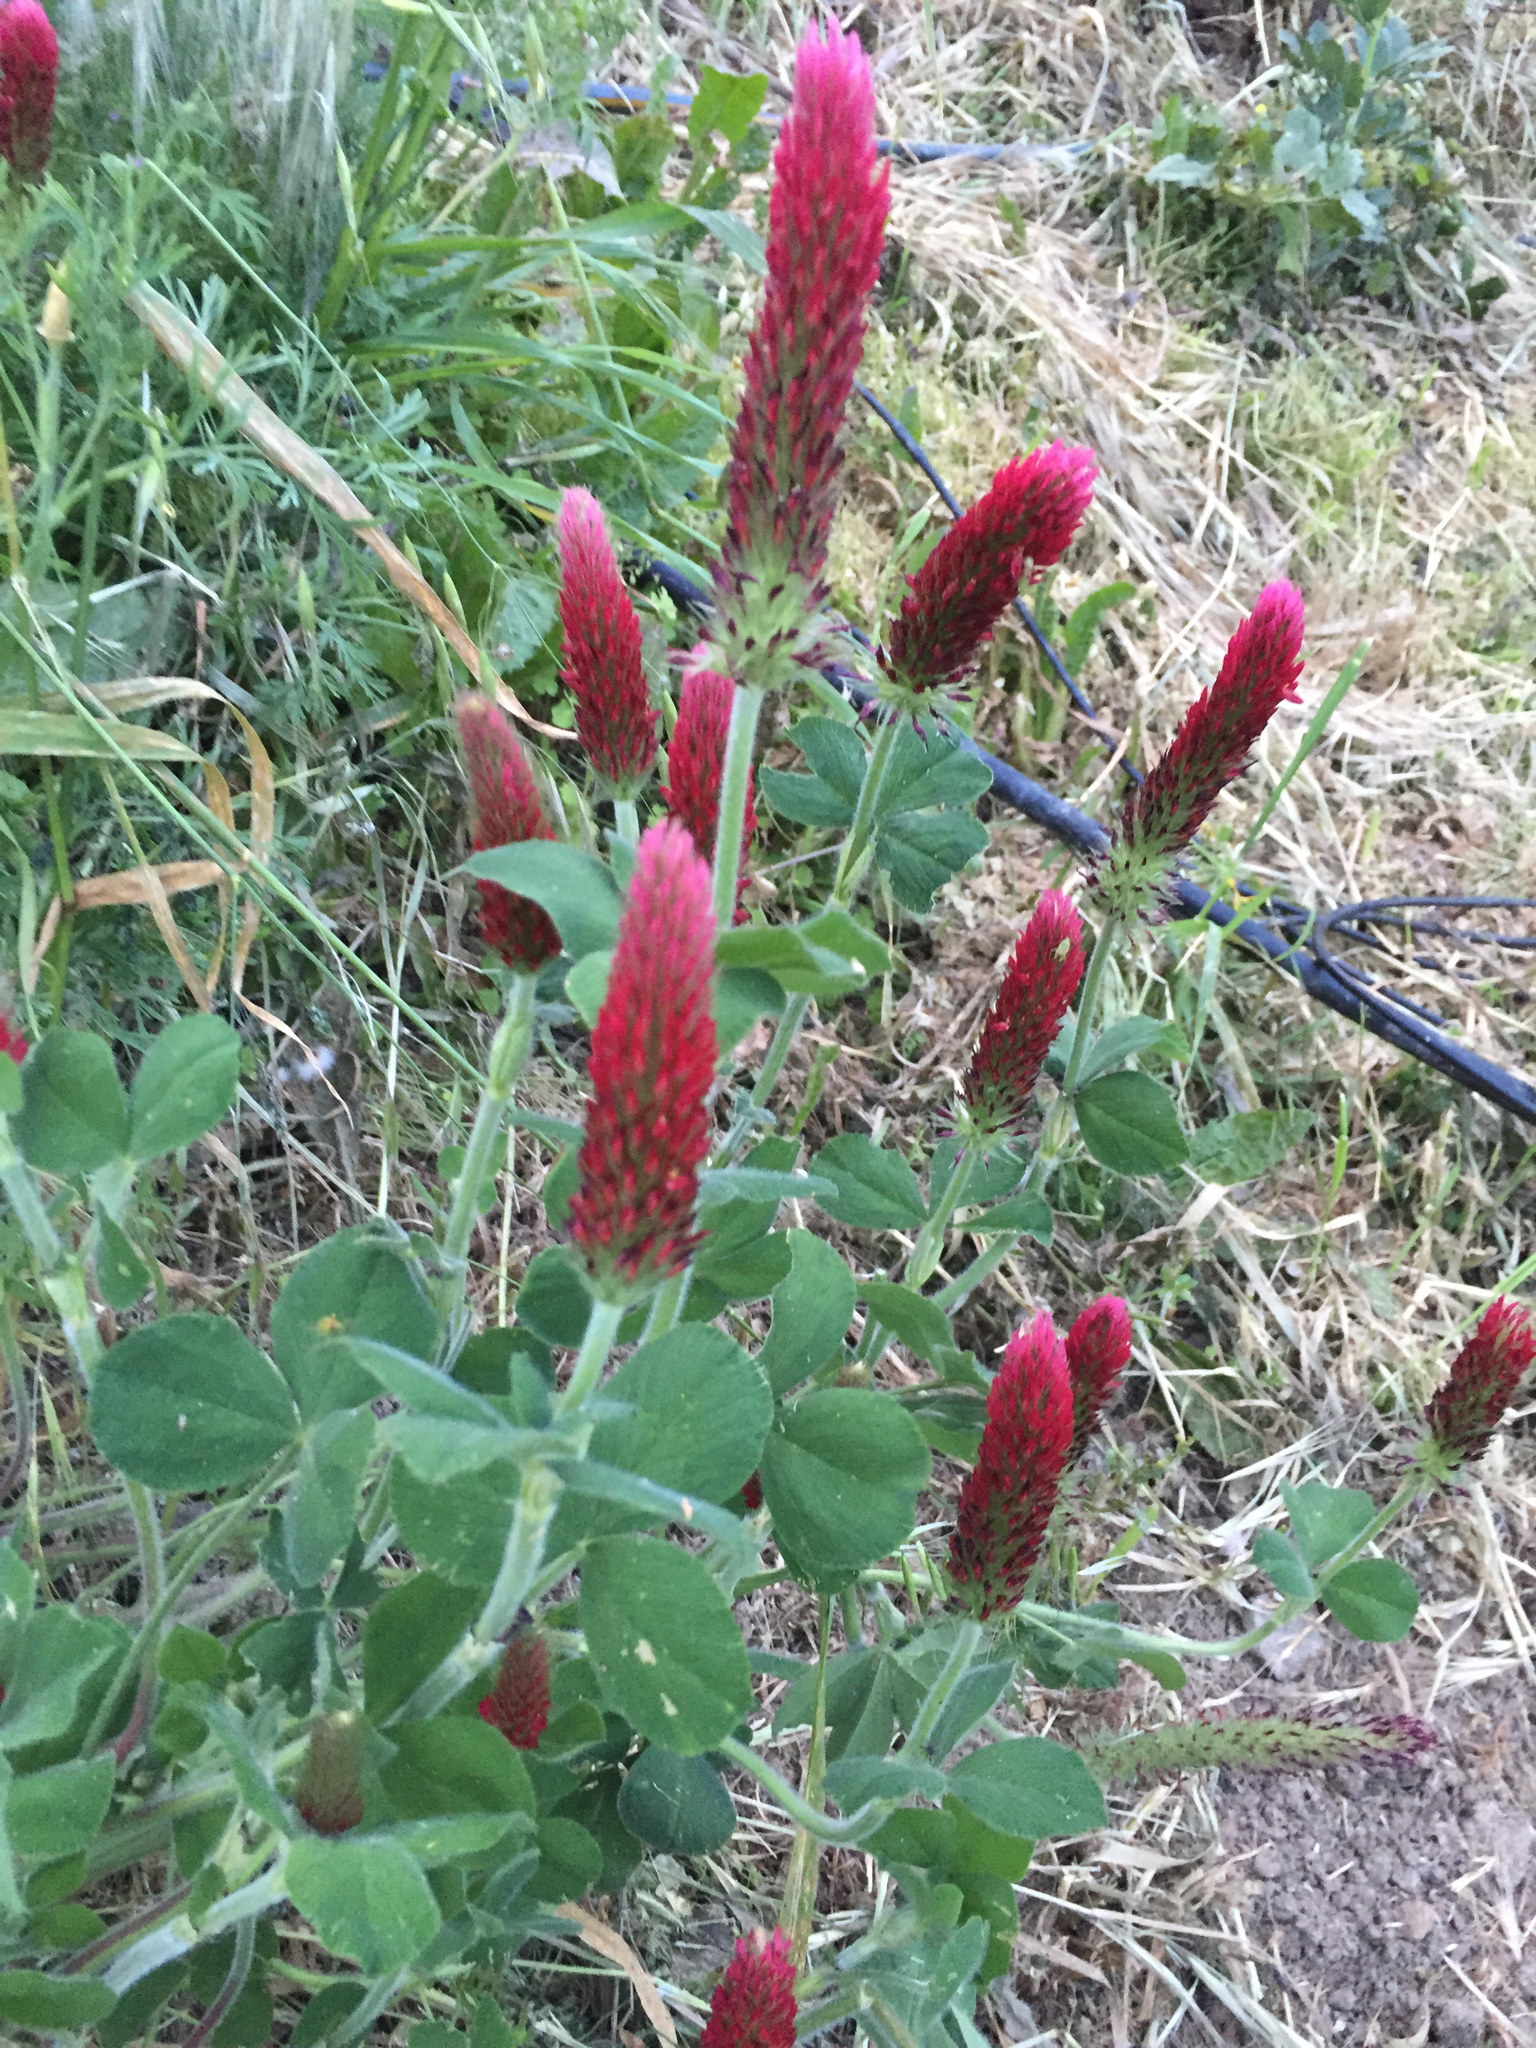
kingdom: Plantae
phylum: Tracheophyta
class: Magnoliopsida
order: Fabales
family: Fabaceae
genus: Trifolium
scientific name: Trifolium incarnatum
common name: Crimson clover
